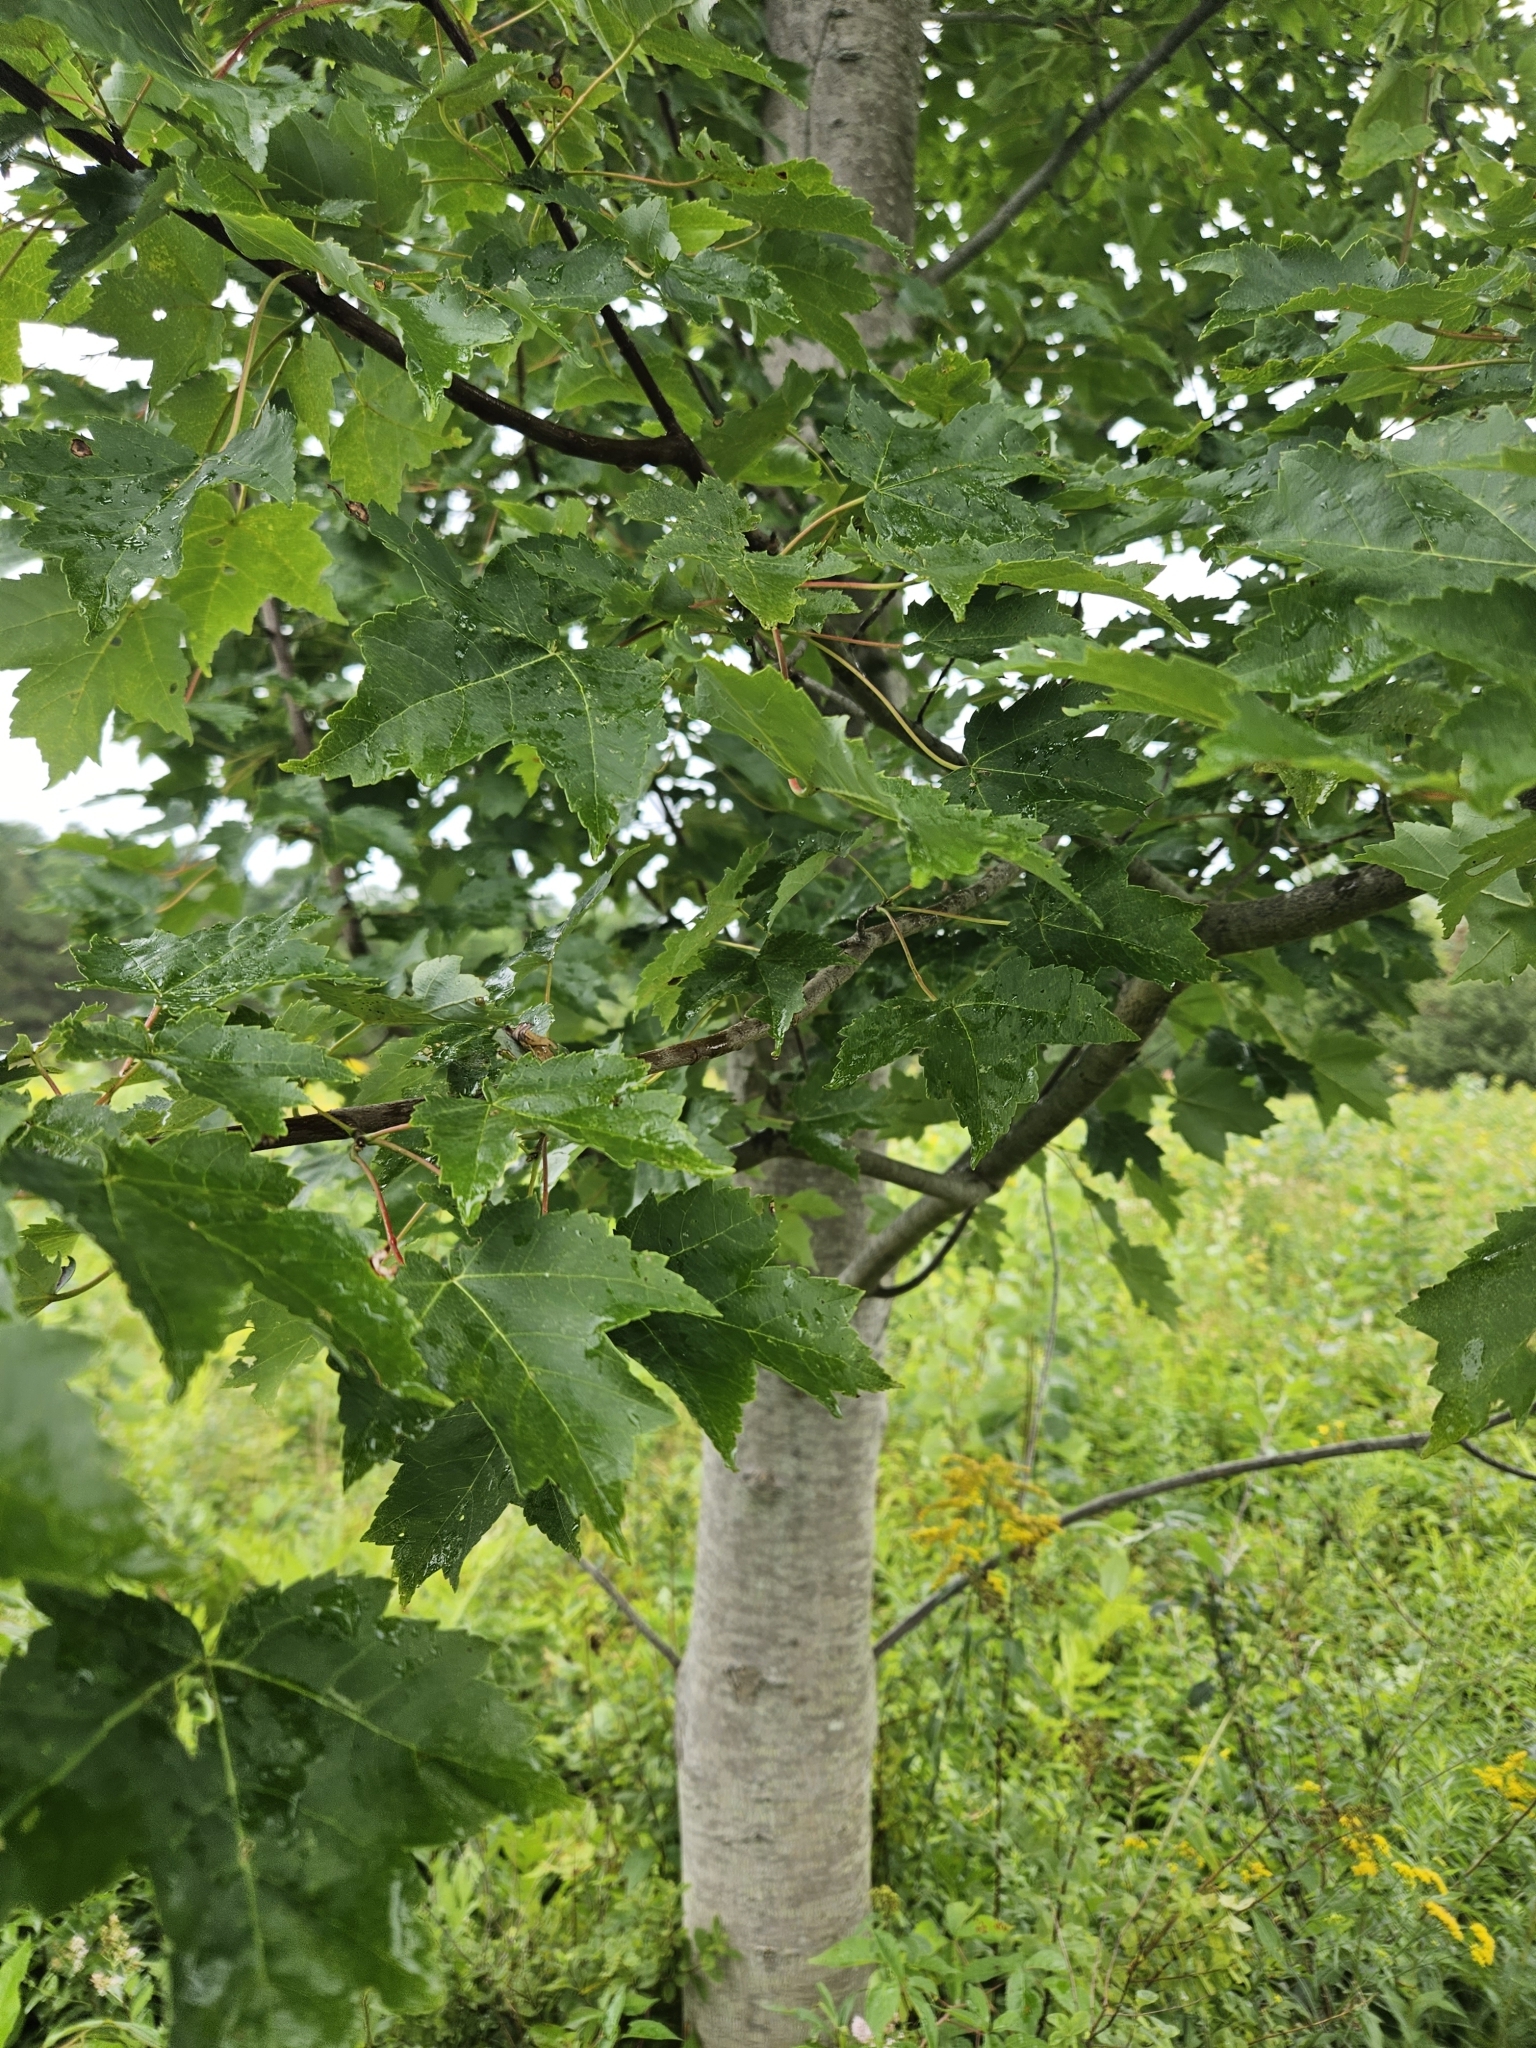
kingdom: Plantae
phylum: Tracheophyta
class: Magnoliopsida
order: Sapindales
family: Sapindaceae
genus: Acer
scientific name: Acer rubrum
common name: Red maple
